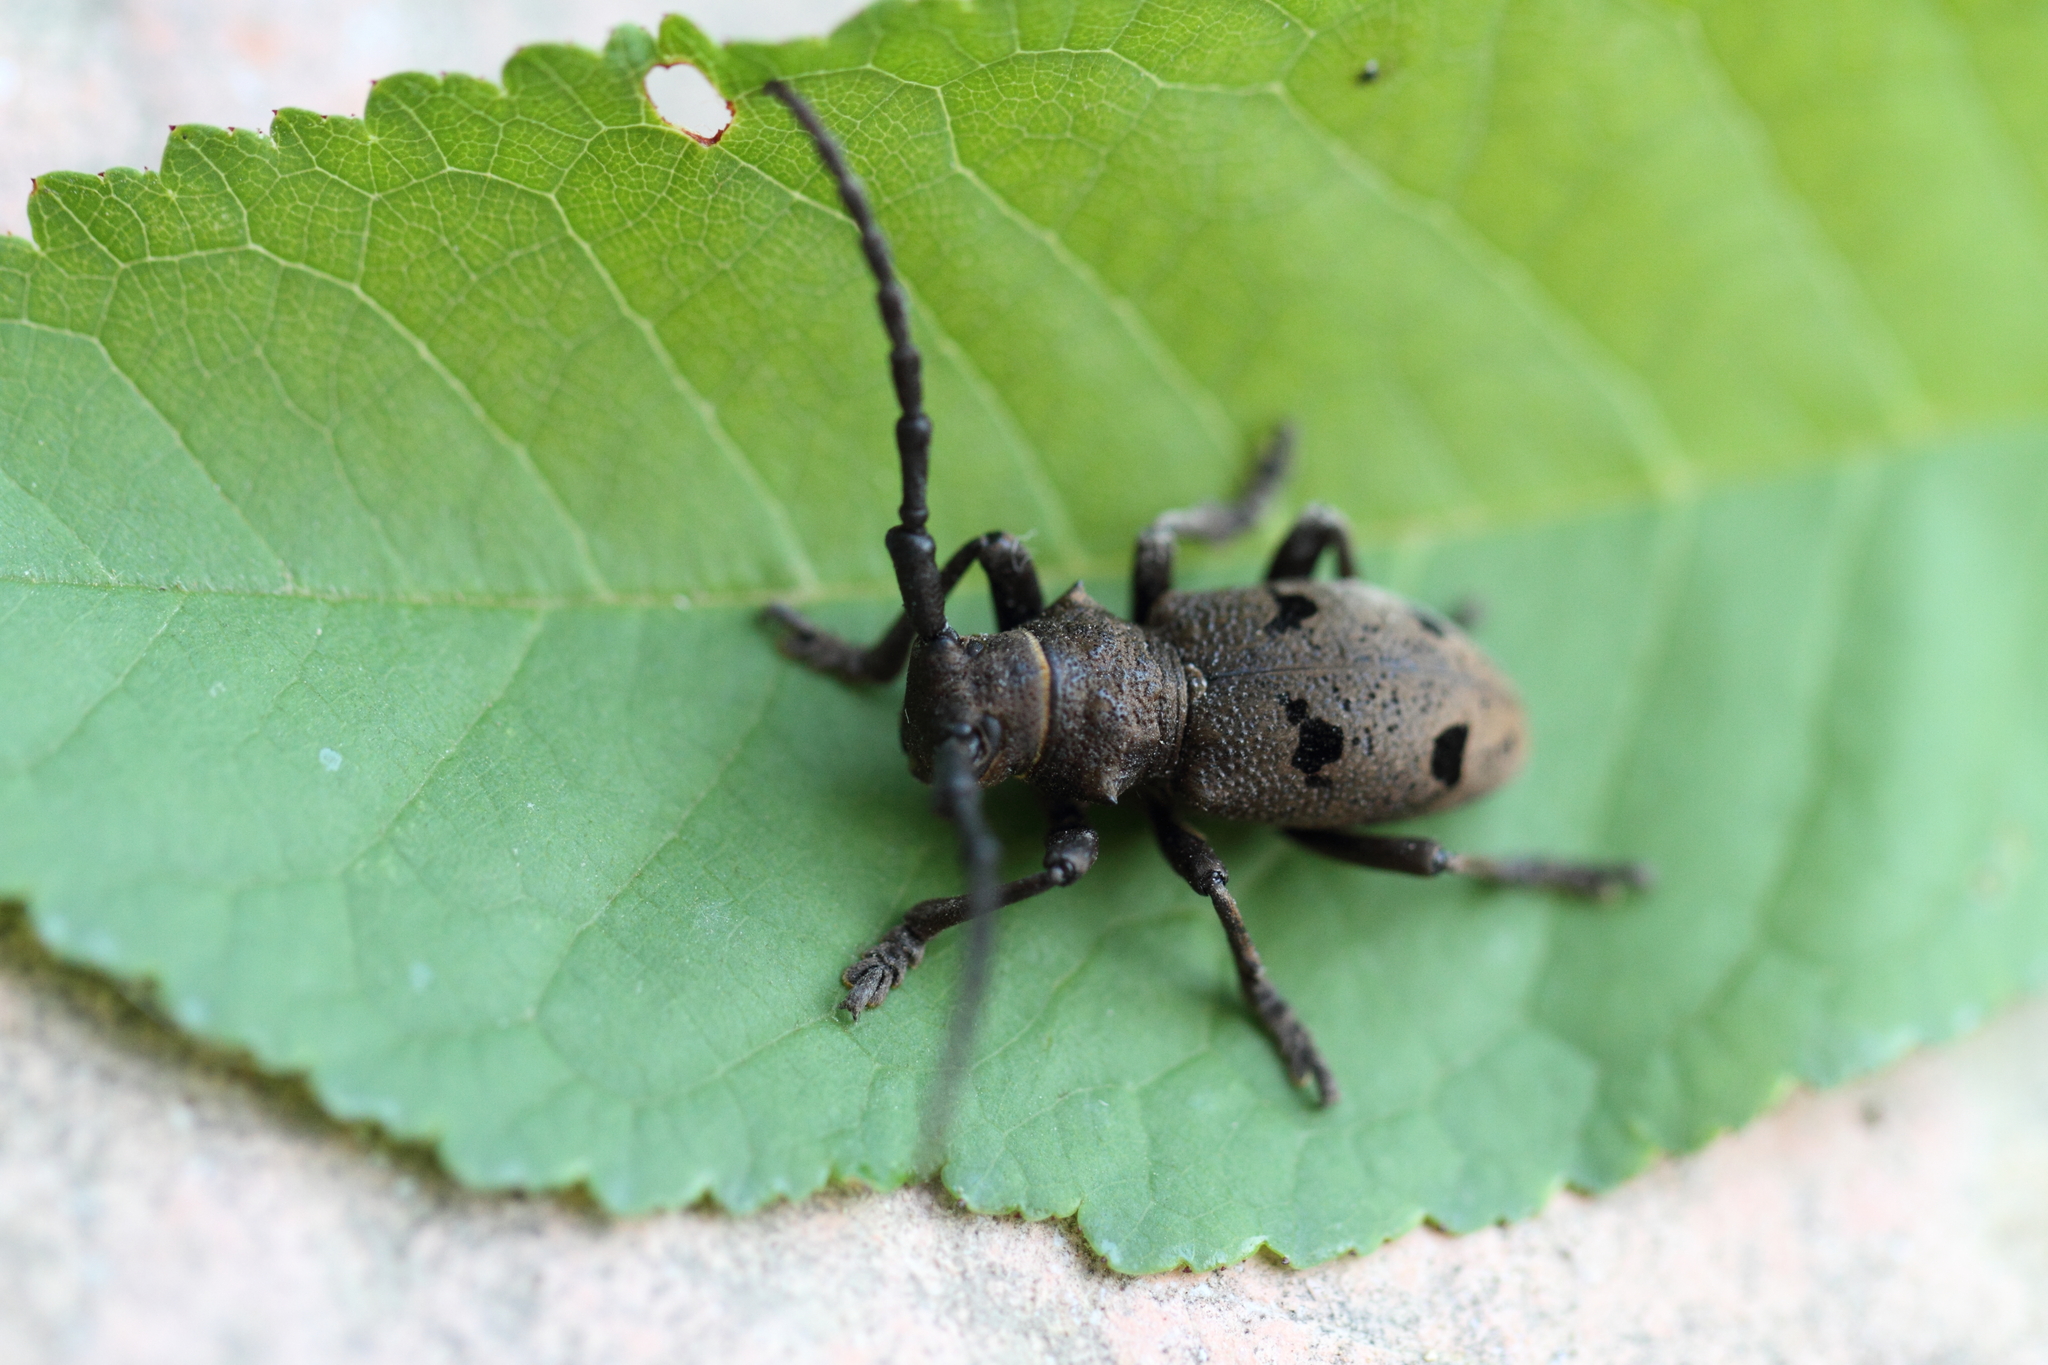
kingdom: Animalia
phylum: Arthropoda
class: Insecta
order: Coleoptera
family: Cerambycidae
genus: Herophila
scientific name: Herophila tristis
